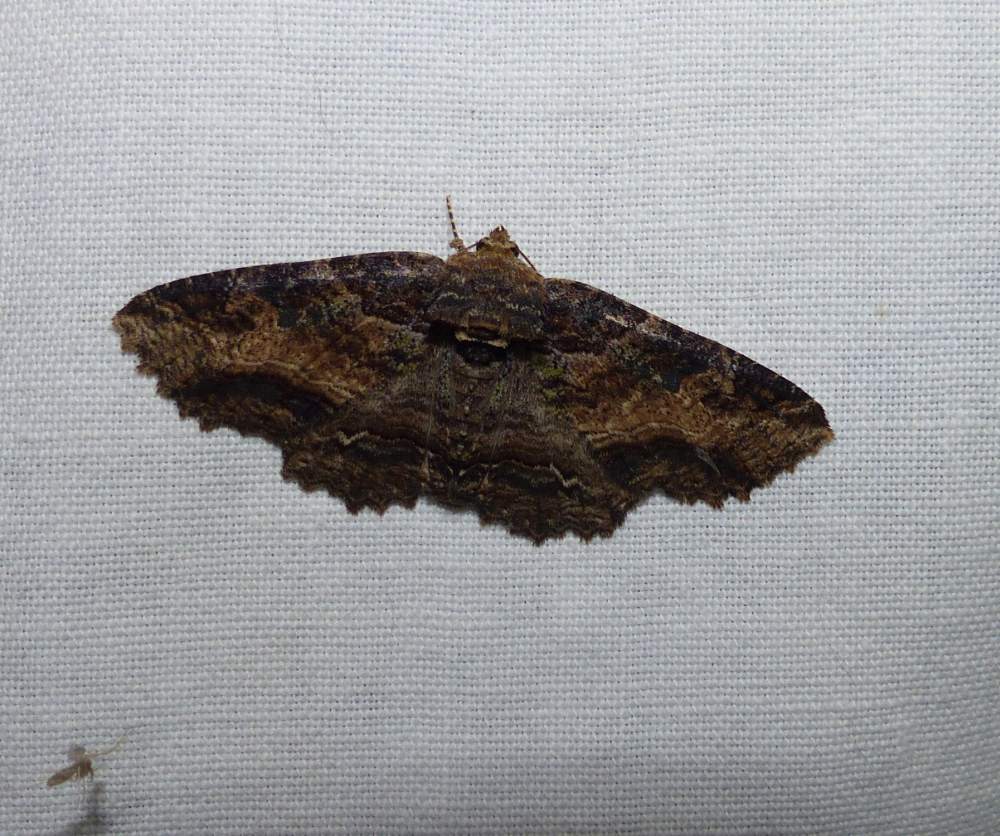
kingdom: Animalia
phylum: Arthropoda
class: Insecta
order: Lepidoptera
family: Erebidae
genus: Zale
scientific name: Zale minerea
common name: Colorful zale moth
